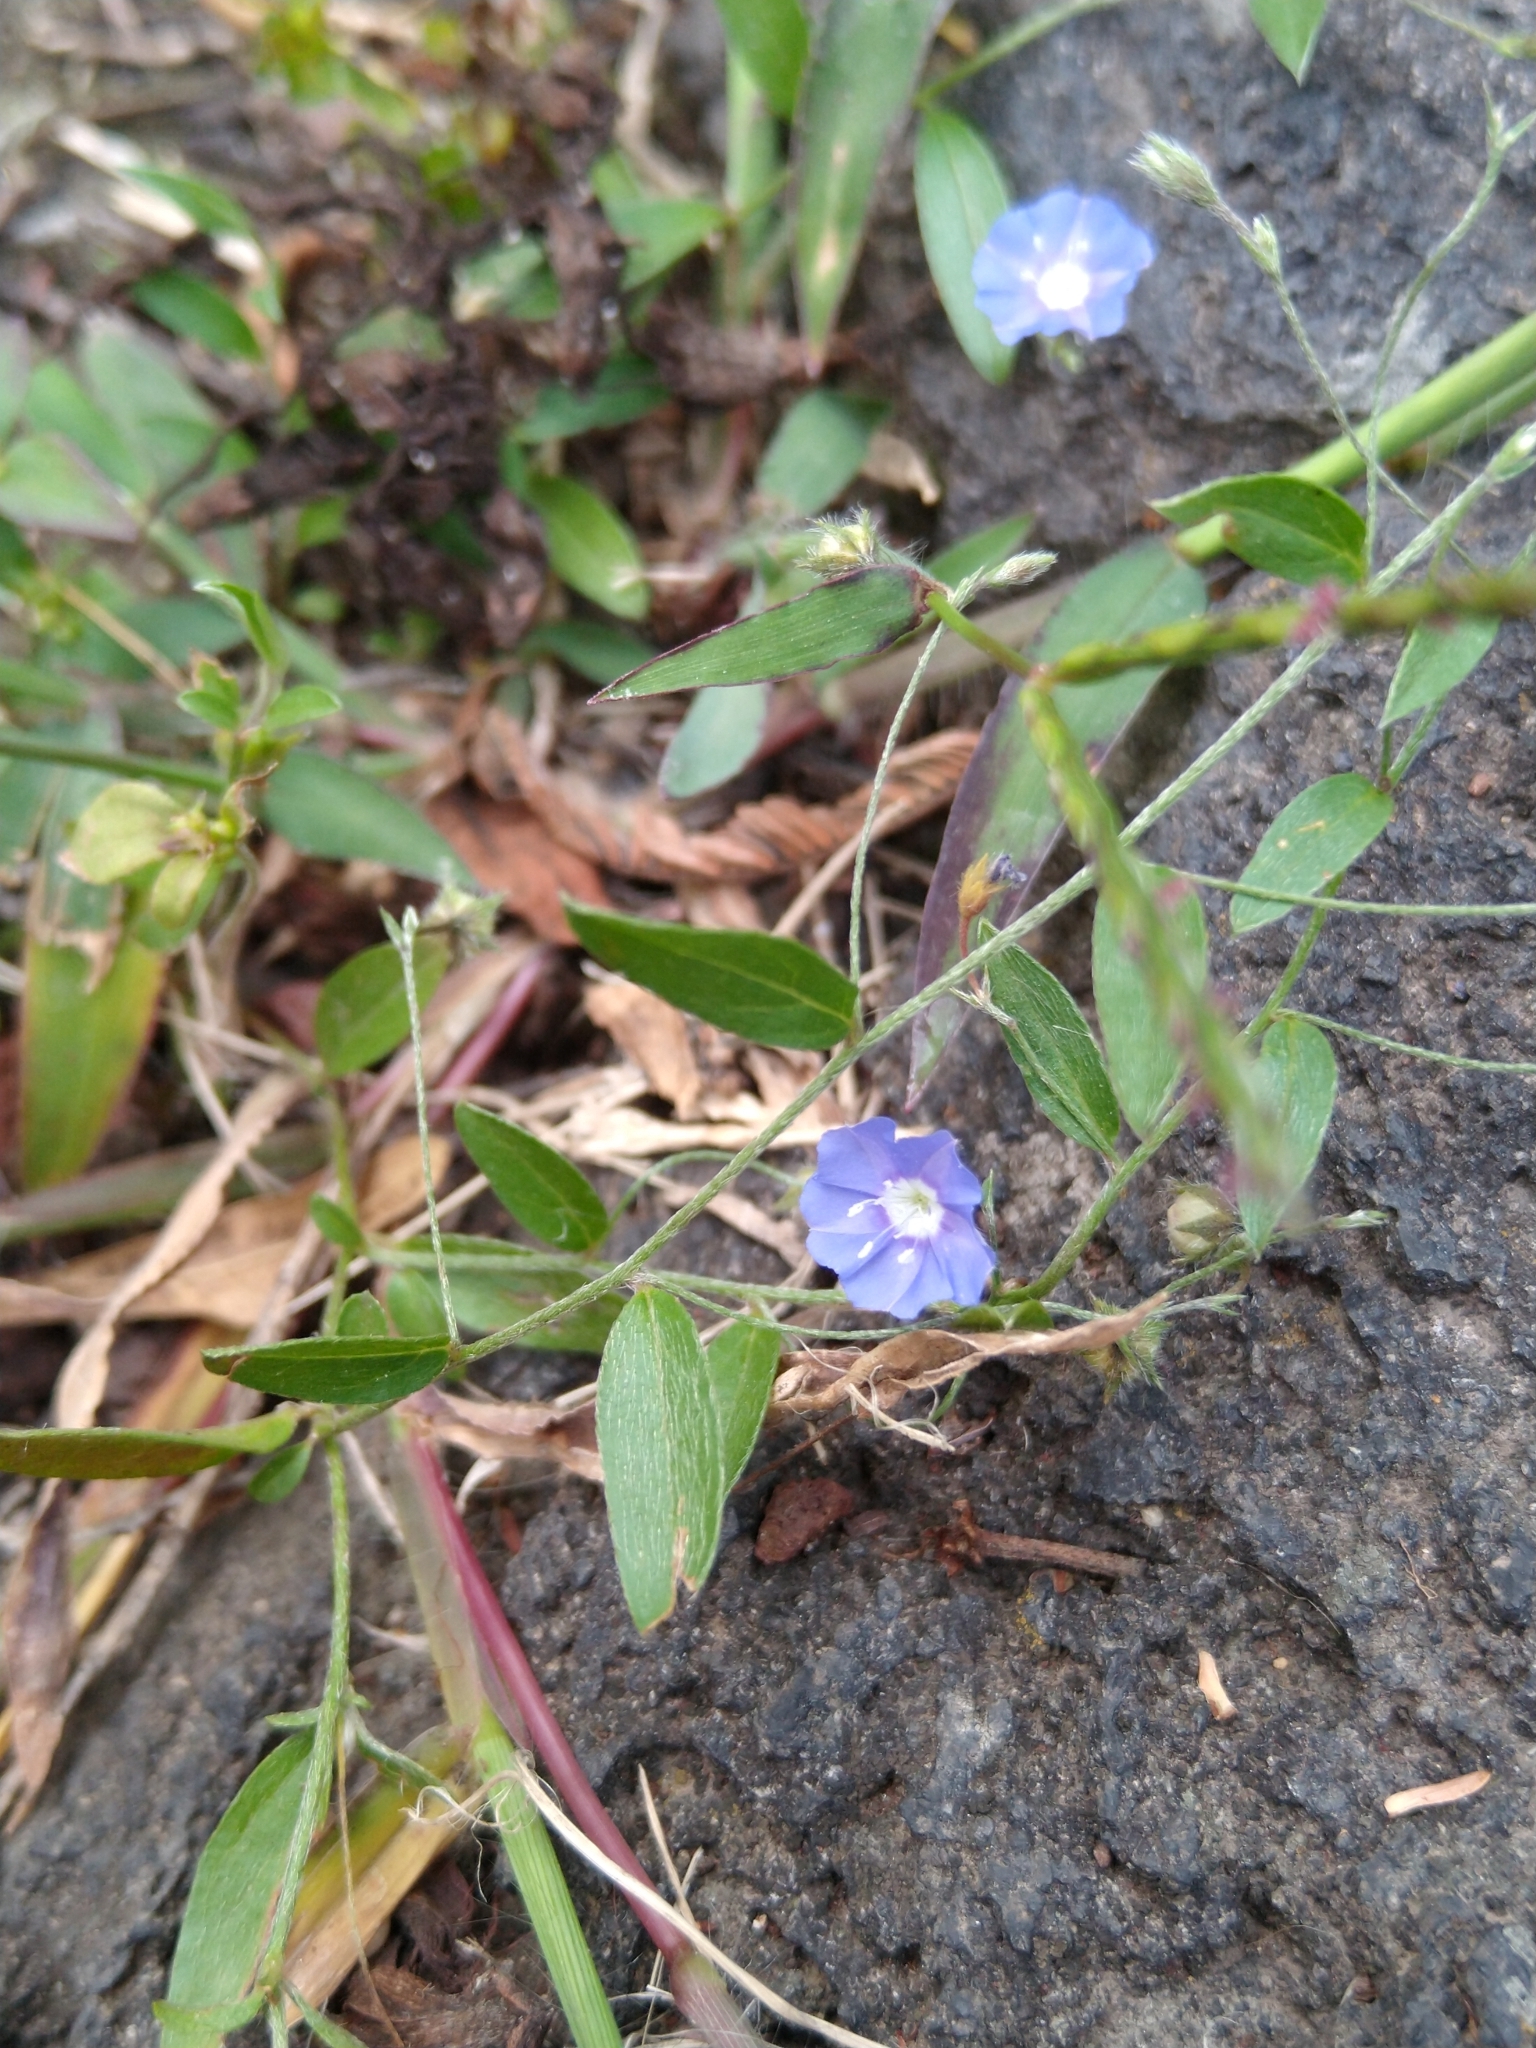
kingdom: Plantae
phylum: Tracheophyta
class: Magnoliopsida
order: Solanales
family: Convolvulaceae
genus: Evolvulus
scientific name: Evolvulus alsinoides
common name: Slender dwarf morning-glory
